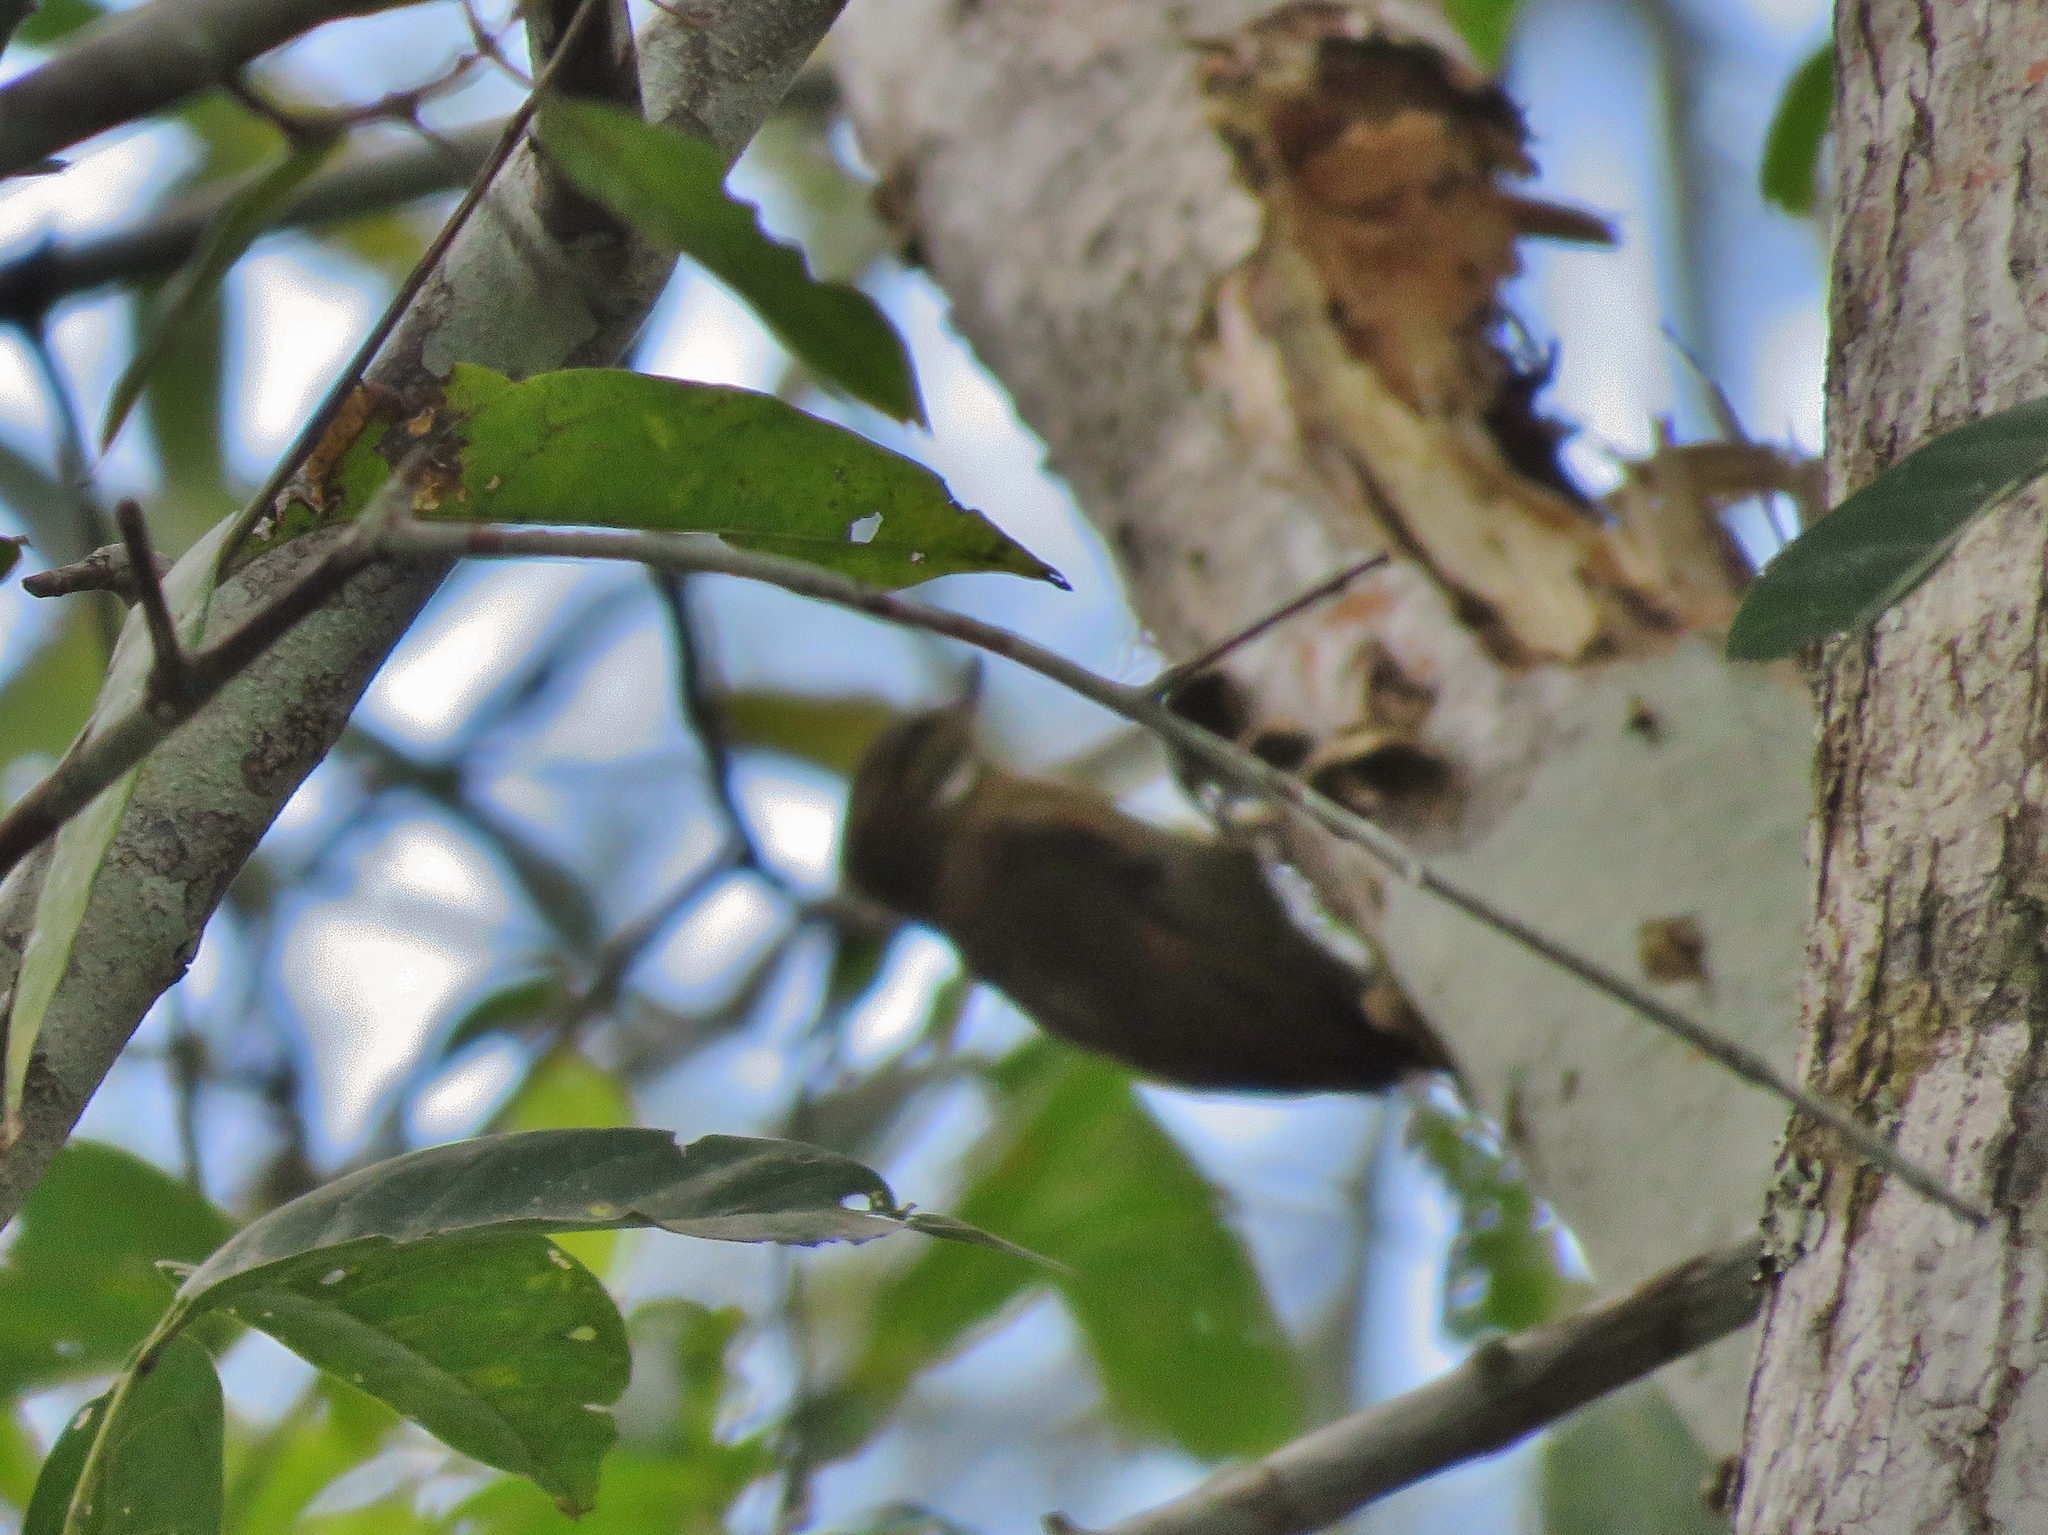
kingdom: Animalia
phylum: Chordata
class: Aves
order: Passeriformes
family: Furnariidae
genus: Xenops
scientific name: Xenops minutus
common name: Plain xenops
